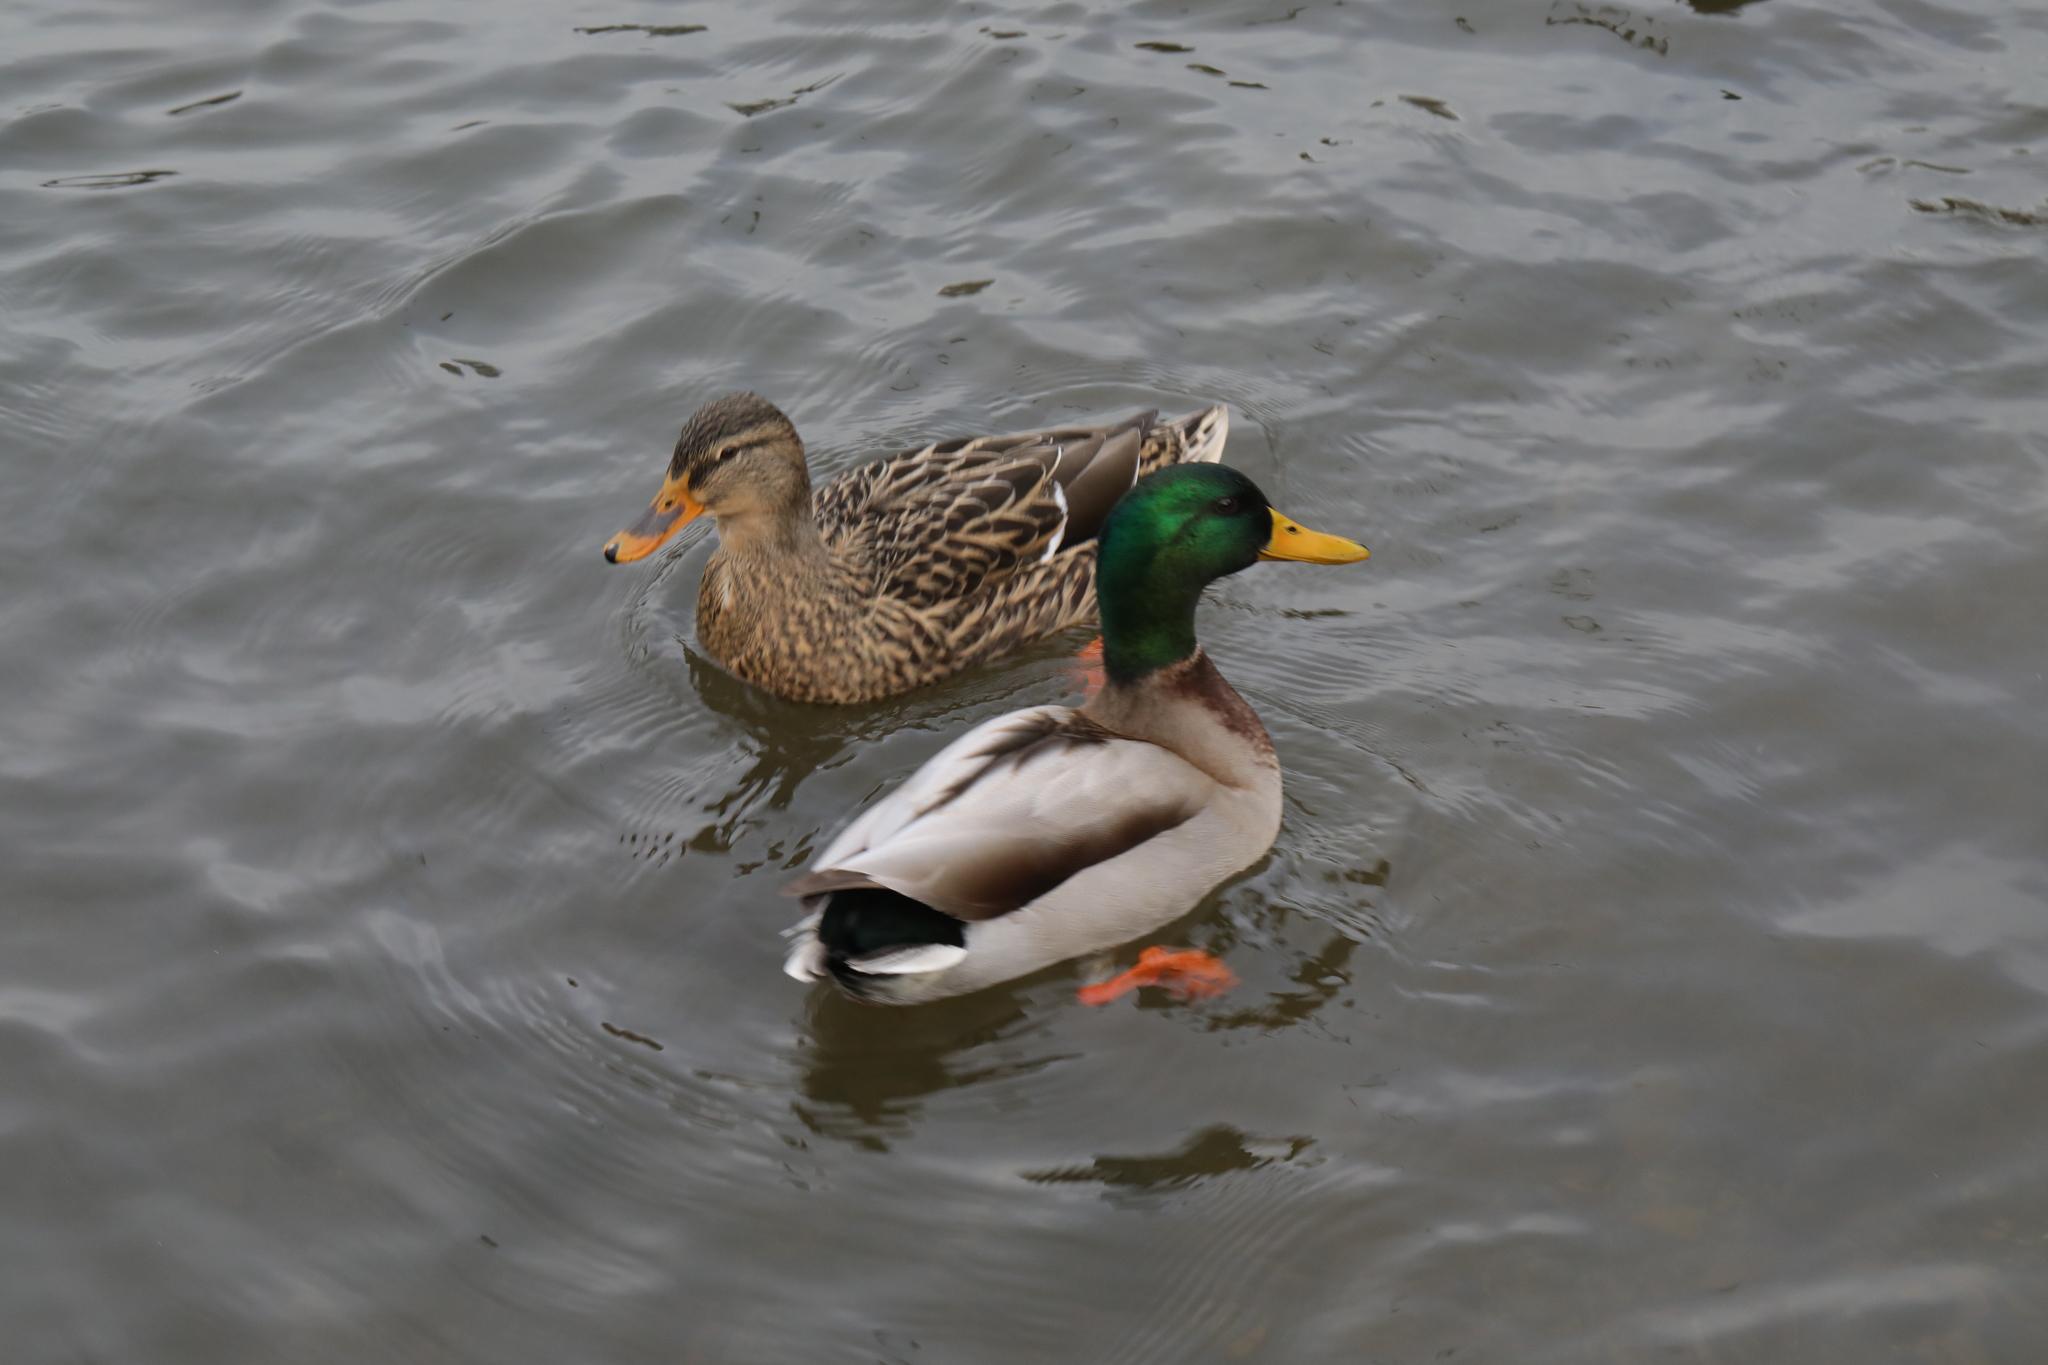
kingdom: Animalia
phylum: Chordata
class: Aves
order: Anseriformes
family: Anatidae
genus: Anas
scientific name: Anas platyrhynchos
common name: Mallard
